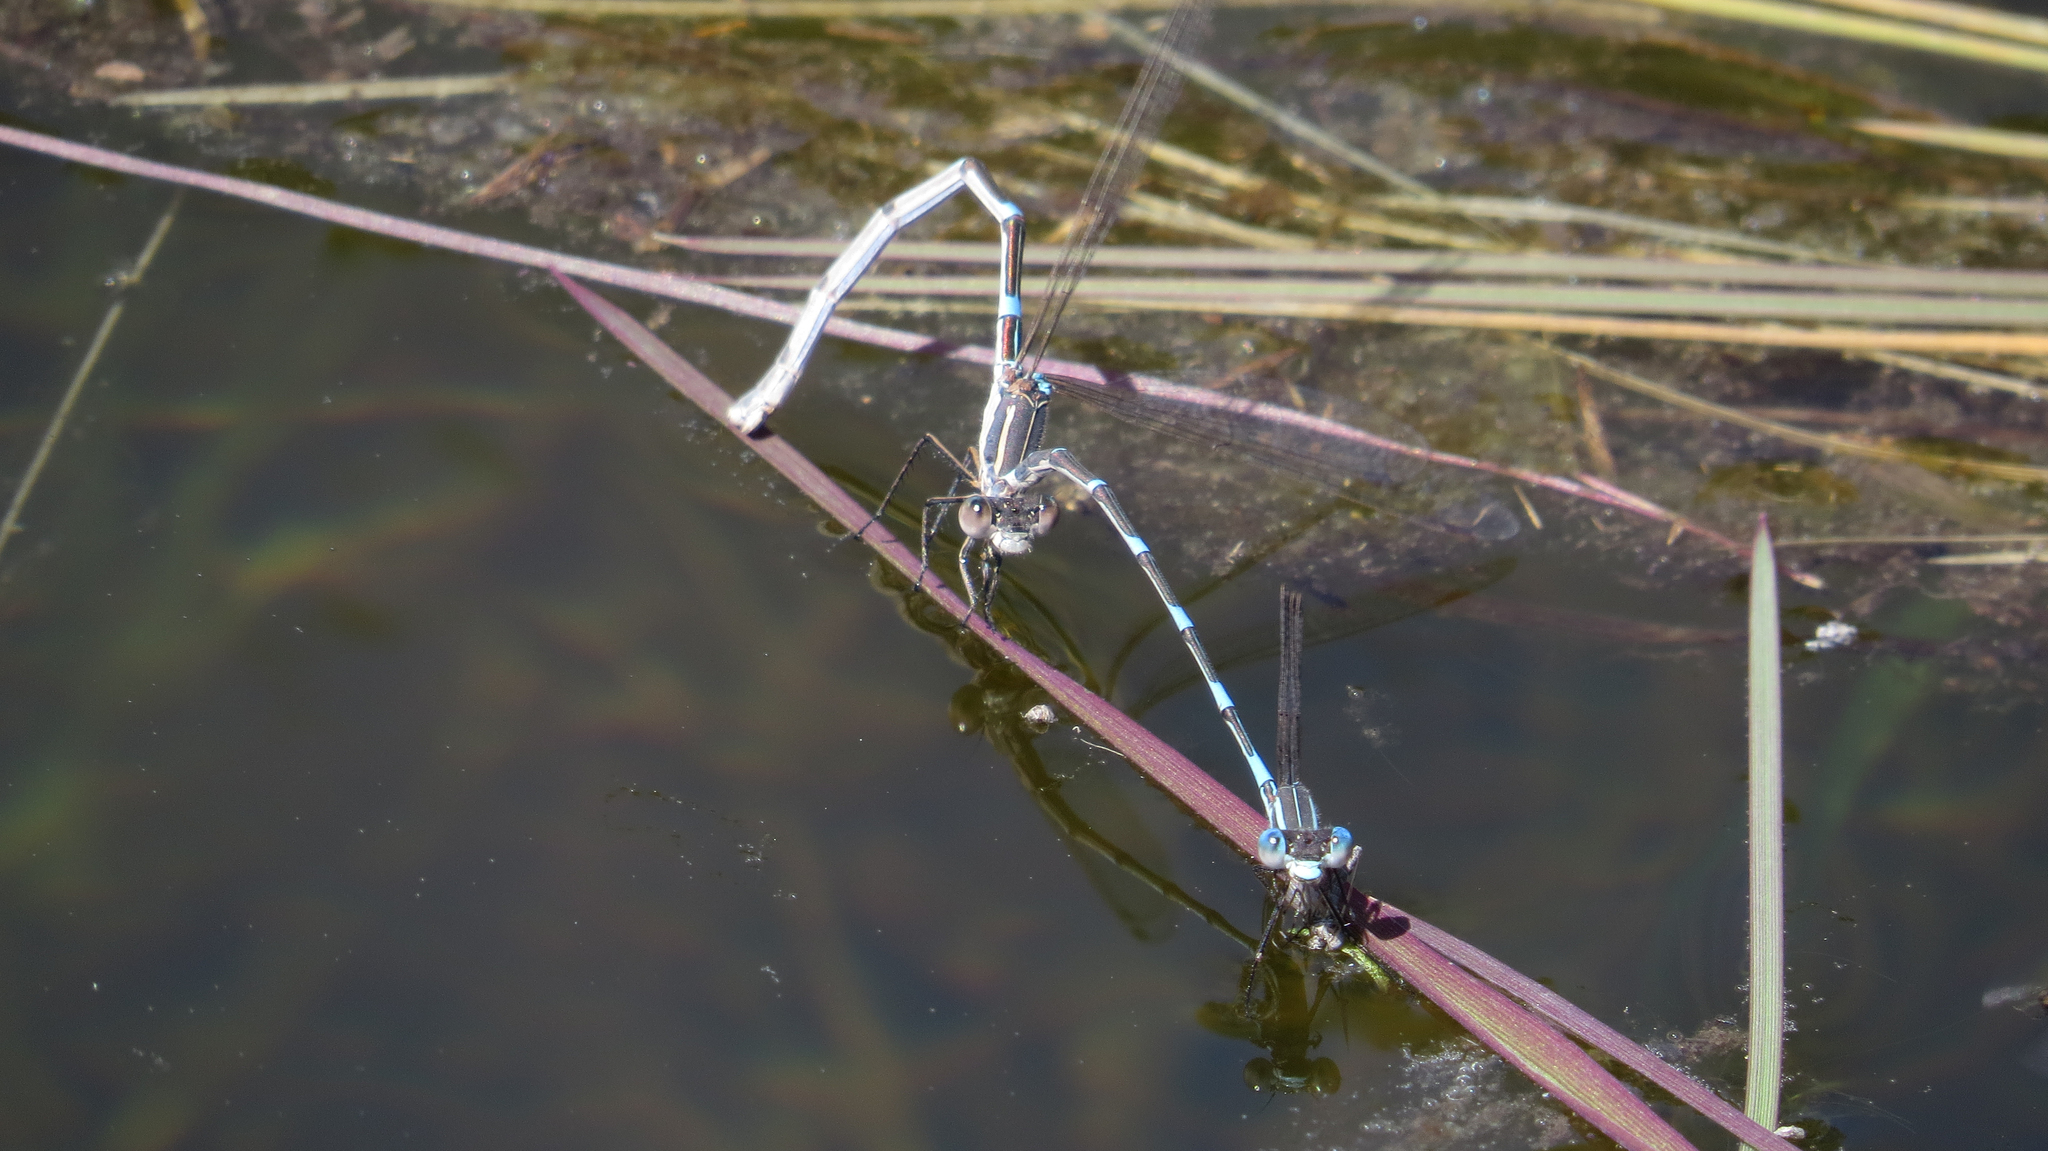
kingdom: Animalia
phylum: Arthropoda
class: Insecta
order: Odonata
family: Lestidae
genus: Austrolestes
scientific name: Austrolestes leda
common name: Wandering ringtail
